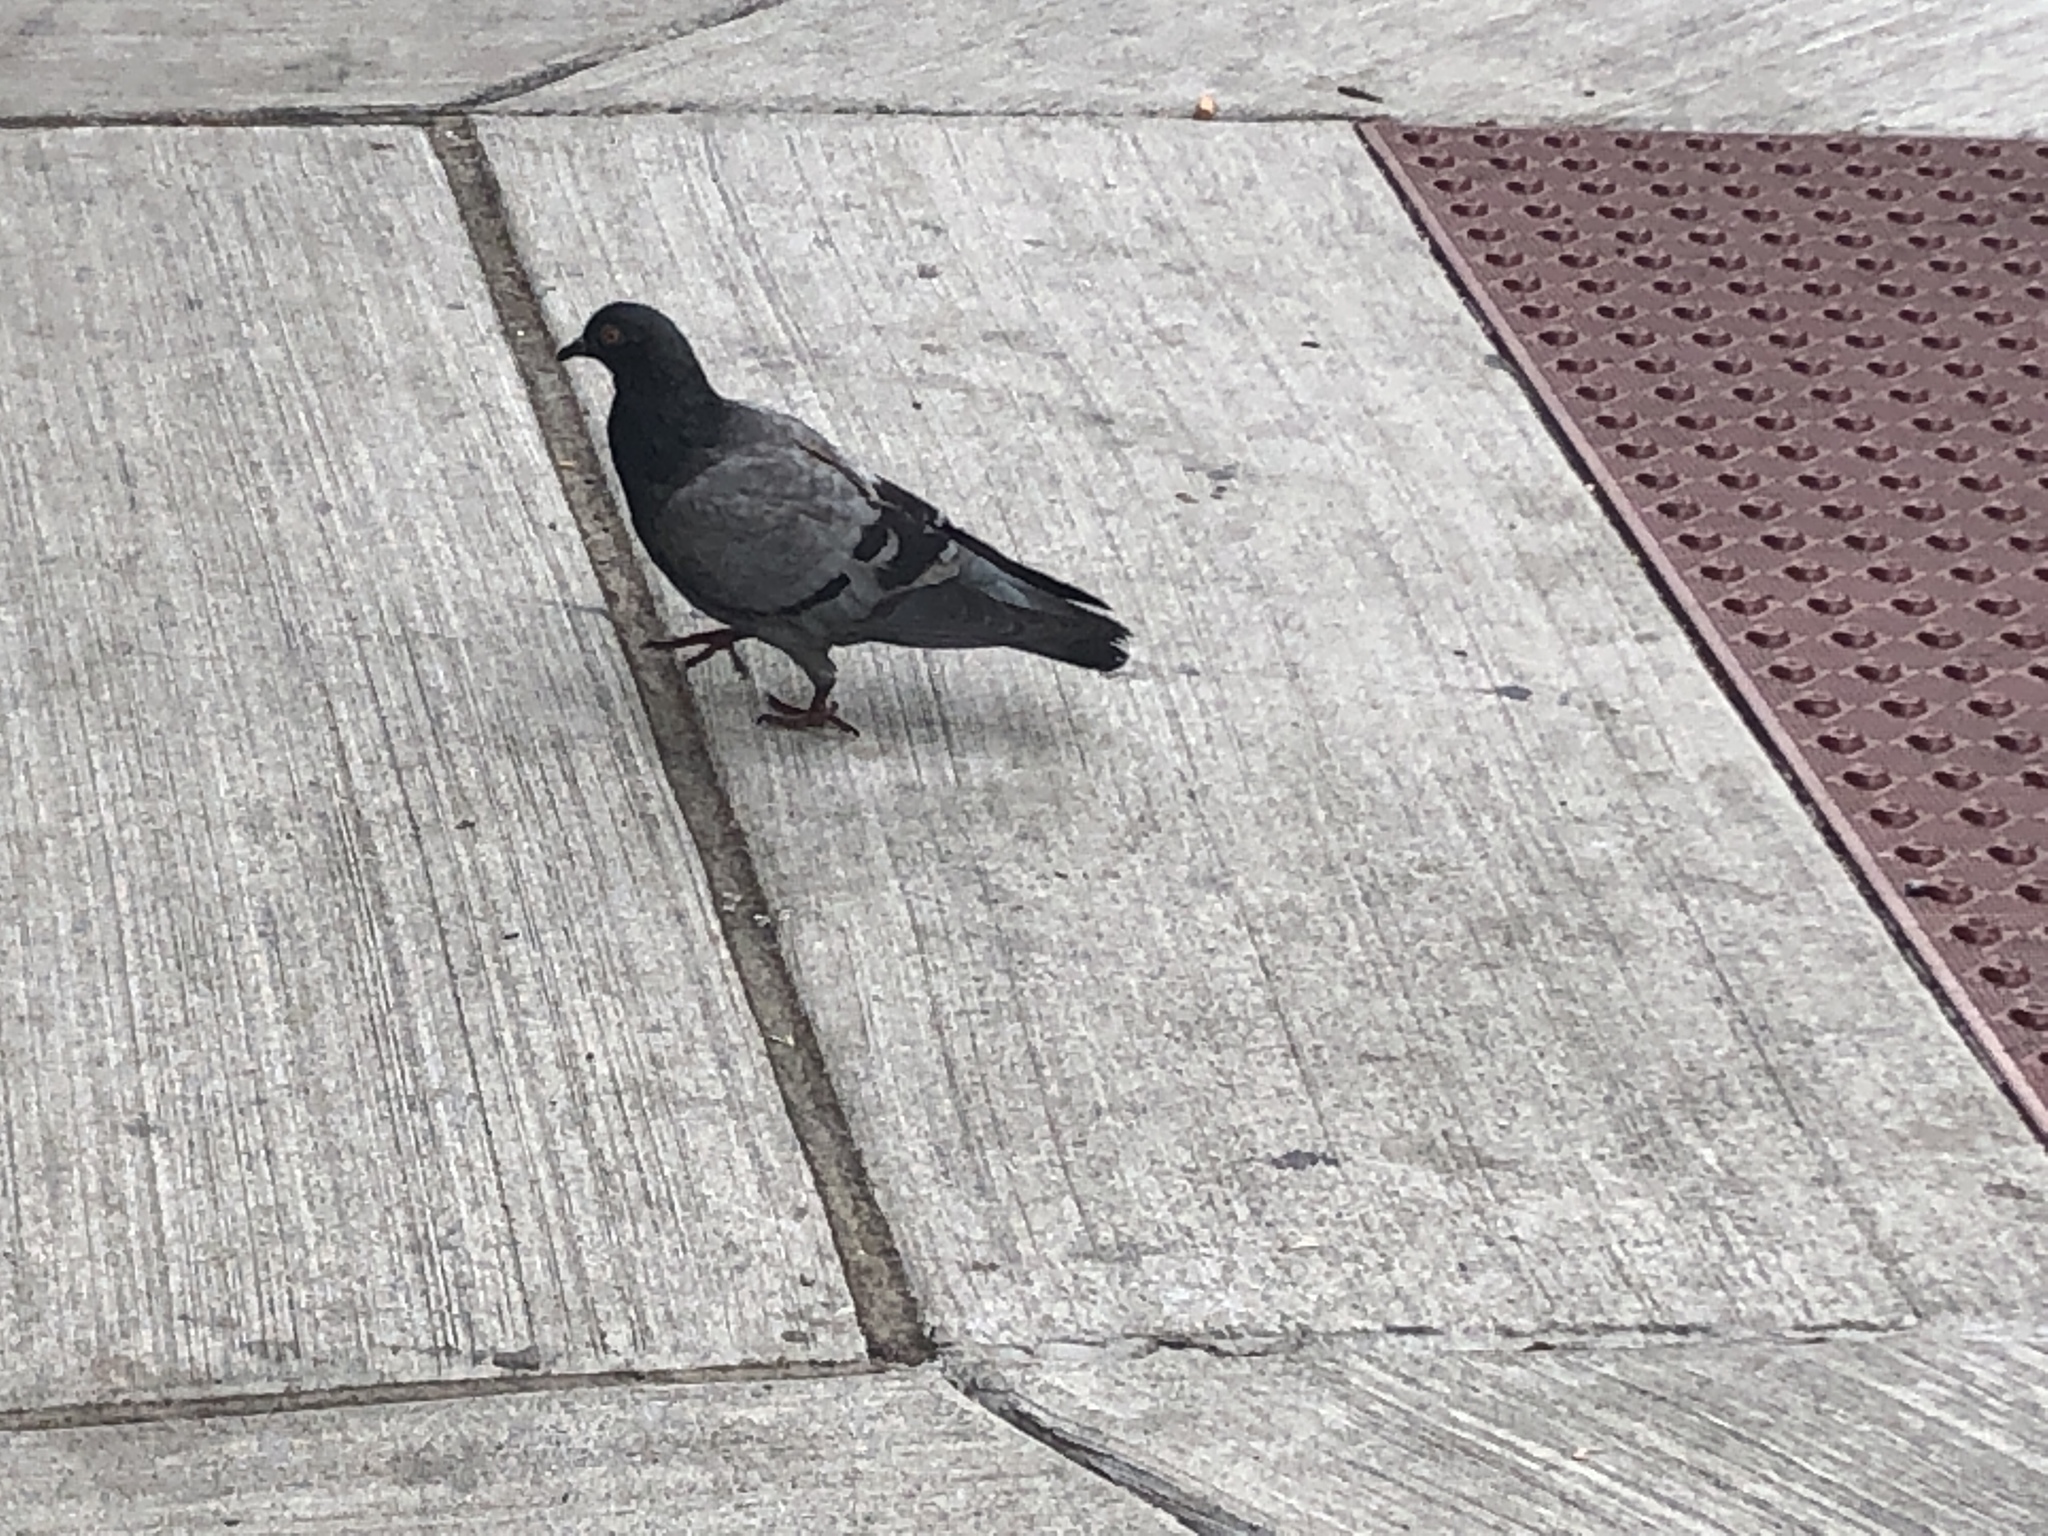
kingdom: Animalia
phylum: Chordata
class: Aves
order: Columbiformes
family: Columbidae
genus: Columba
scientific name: Columba livia
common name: Rock pigeon
